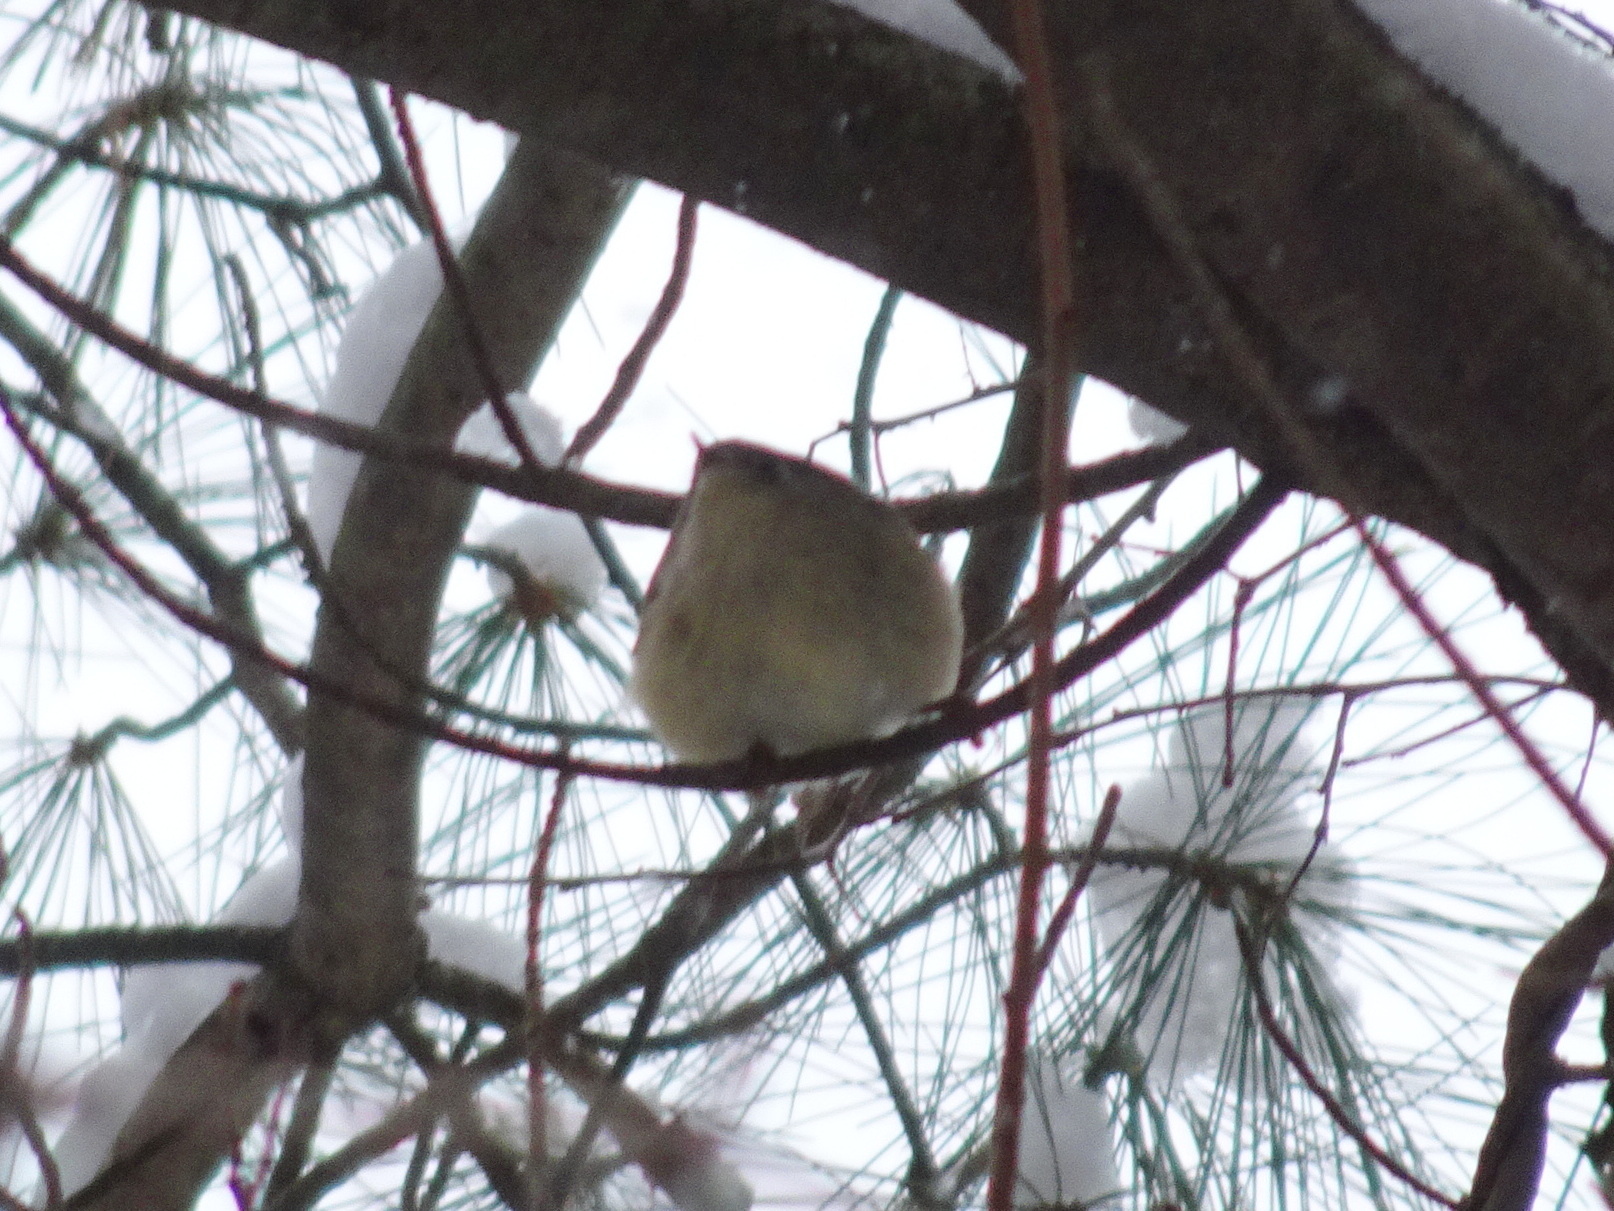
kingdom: Animalia
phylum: Chordata
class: Aves
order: Passeriformes
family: Regulidae
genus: Regulus
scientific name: Regulus calendula
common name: Ruby-crowned kinglet
